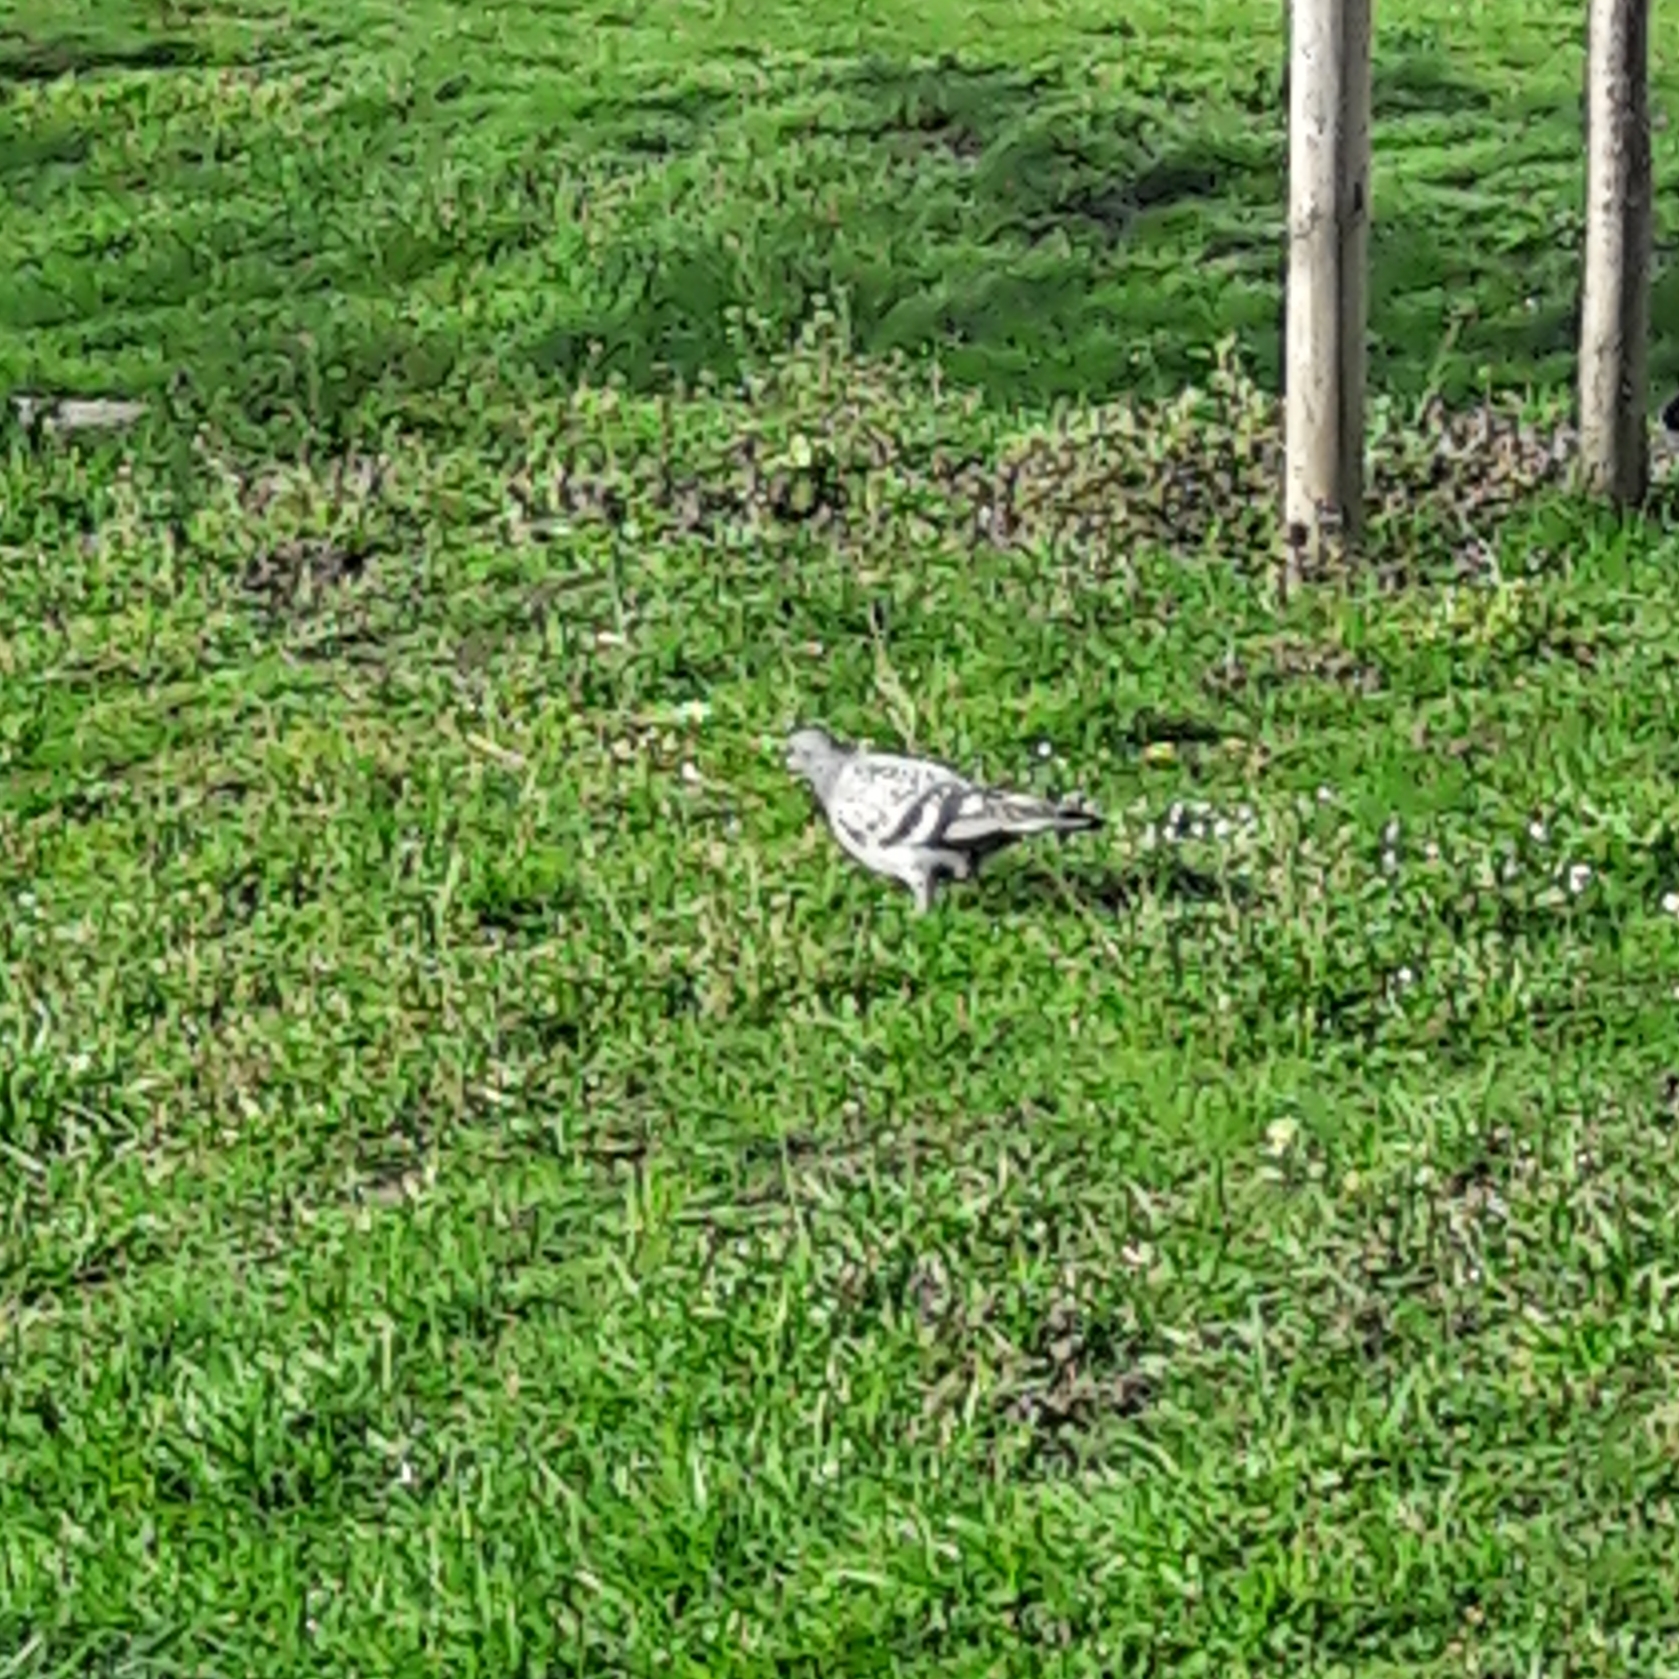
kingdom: Animalia
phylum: Chordata
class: Aves
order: Columbiformes
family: Columbidae
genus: Columba
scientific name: Columba livia
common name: Rock pigeon
